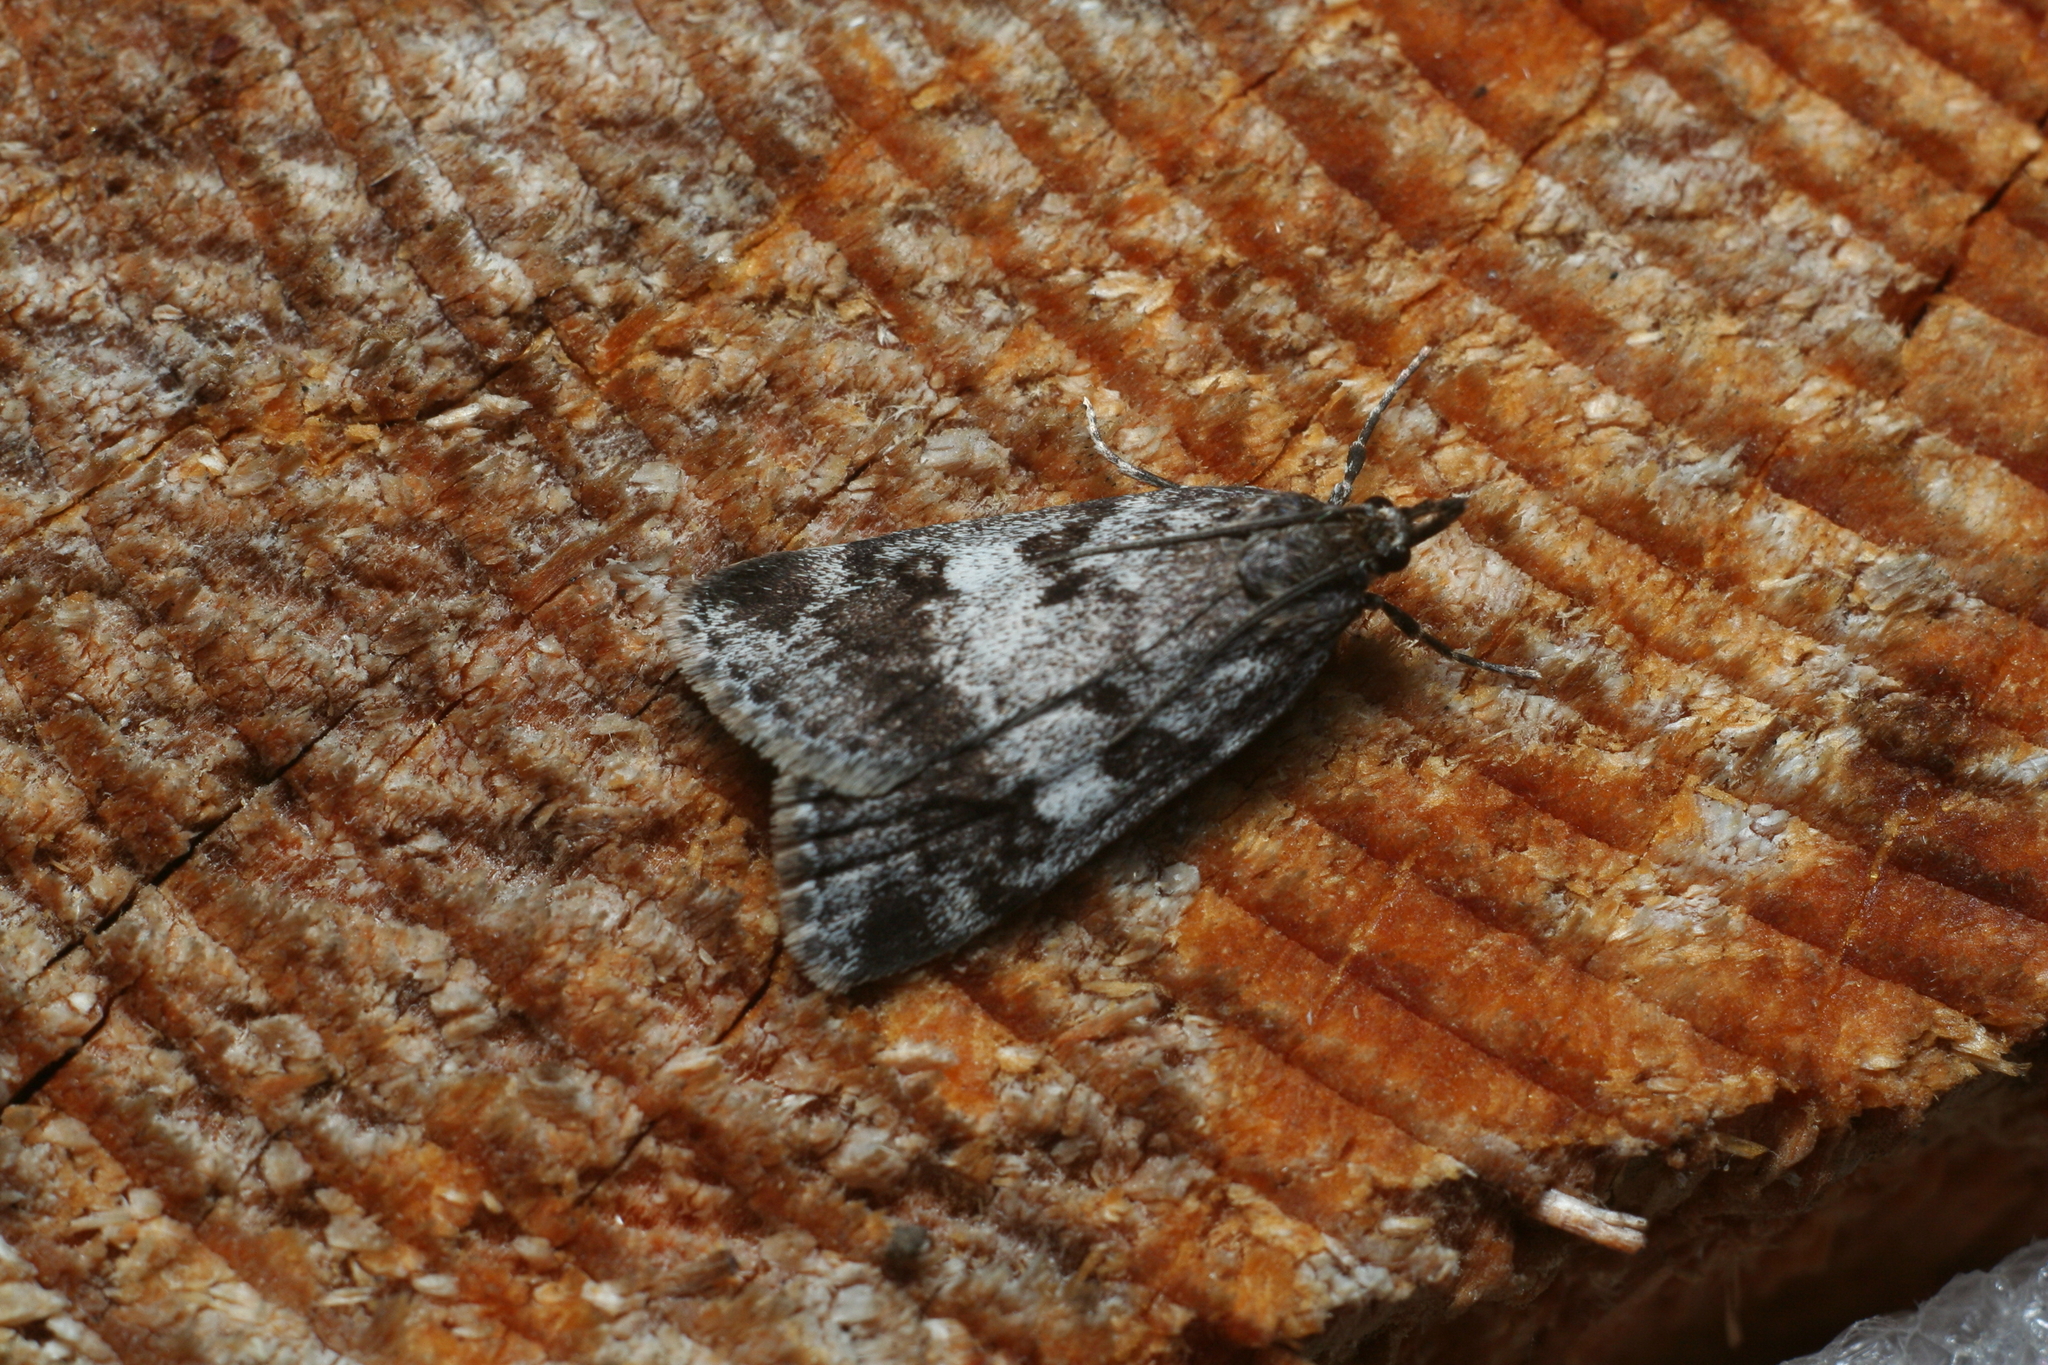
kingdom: Animalia
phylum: Arthropoda
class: Insecta
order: Lepidoptera
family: Crambidae
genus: Gesneria
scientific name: Gesneria centuriella
